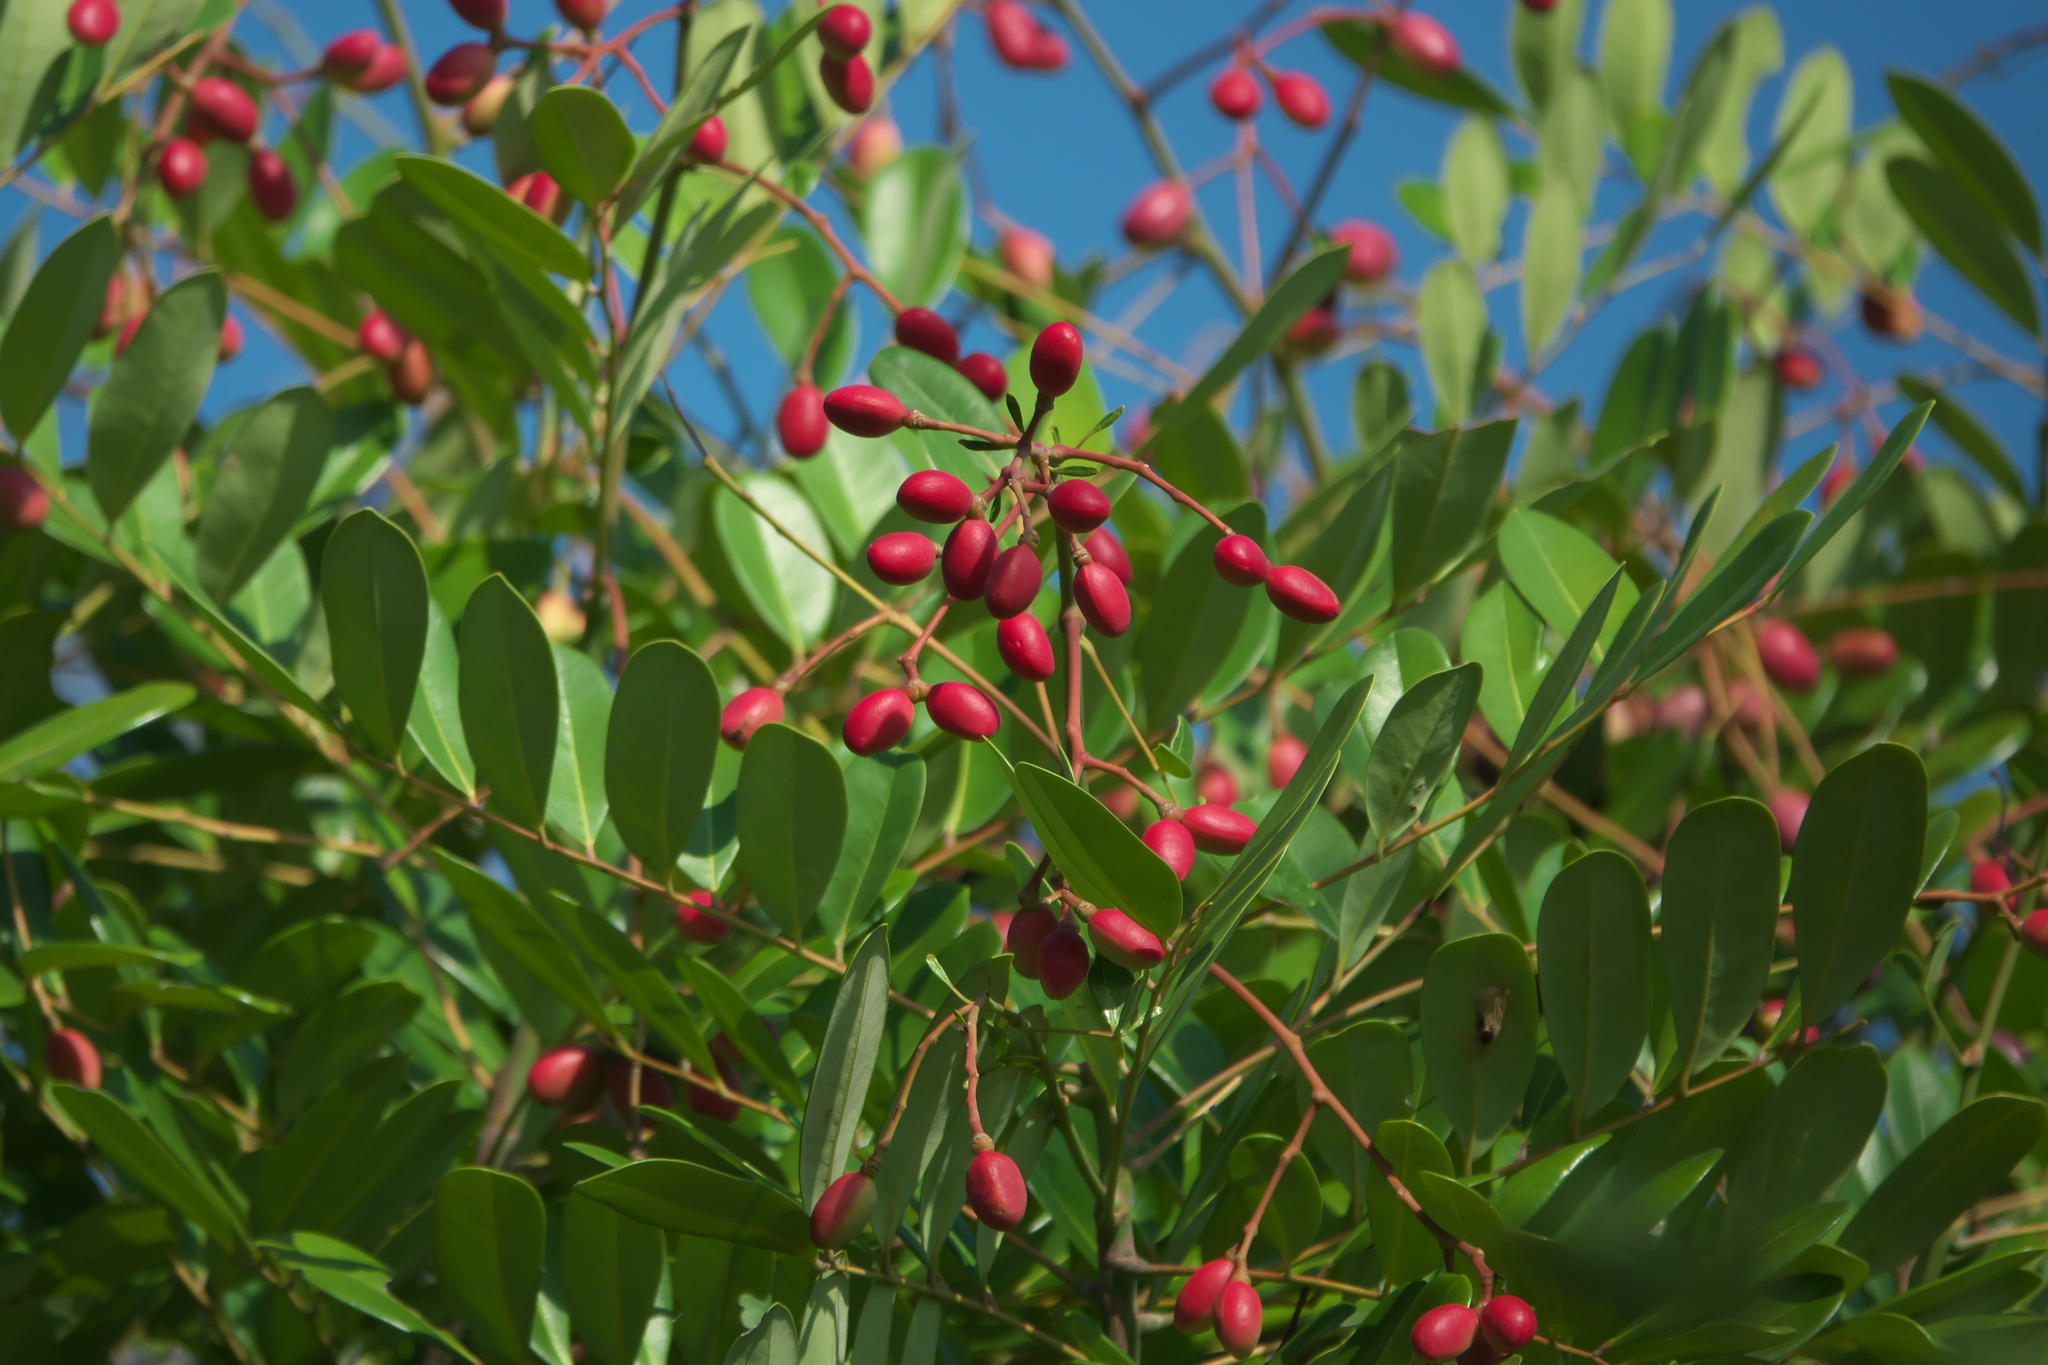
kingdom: Plantae
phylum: Tracheophyta
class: Magnoliopsida
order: Sapindales
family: Simaroubaceae
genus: Simarouba
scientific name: Simarouba glauca
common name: Dysentery-bark
